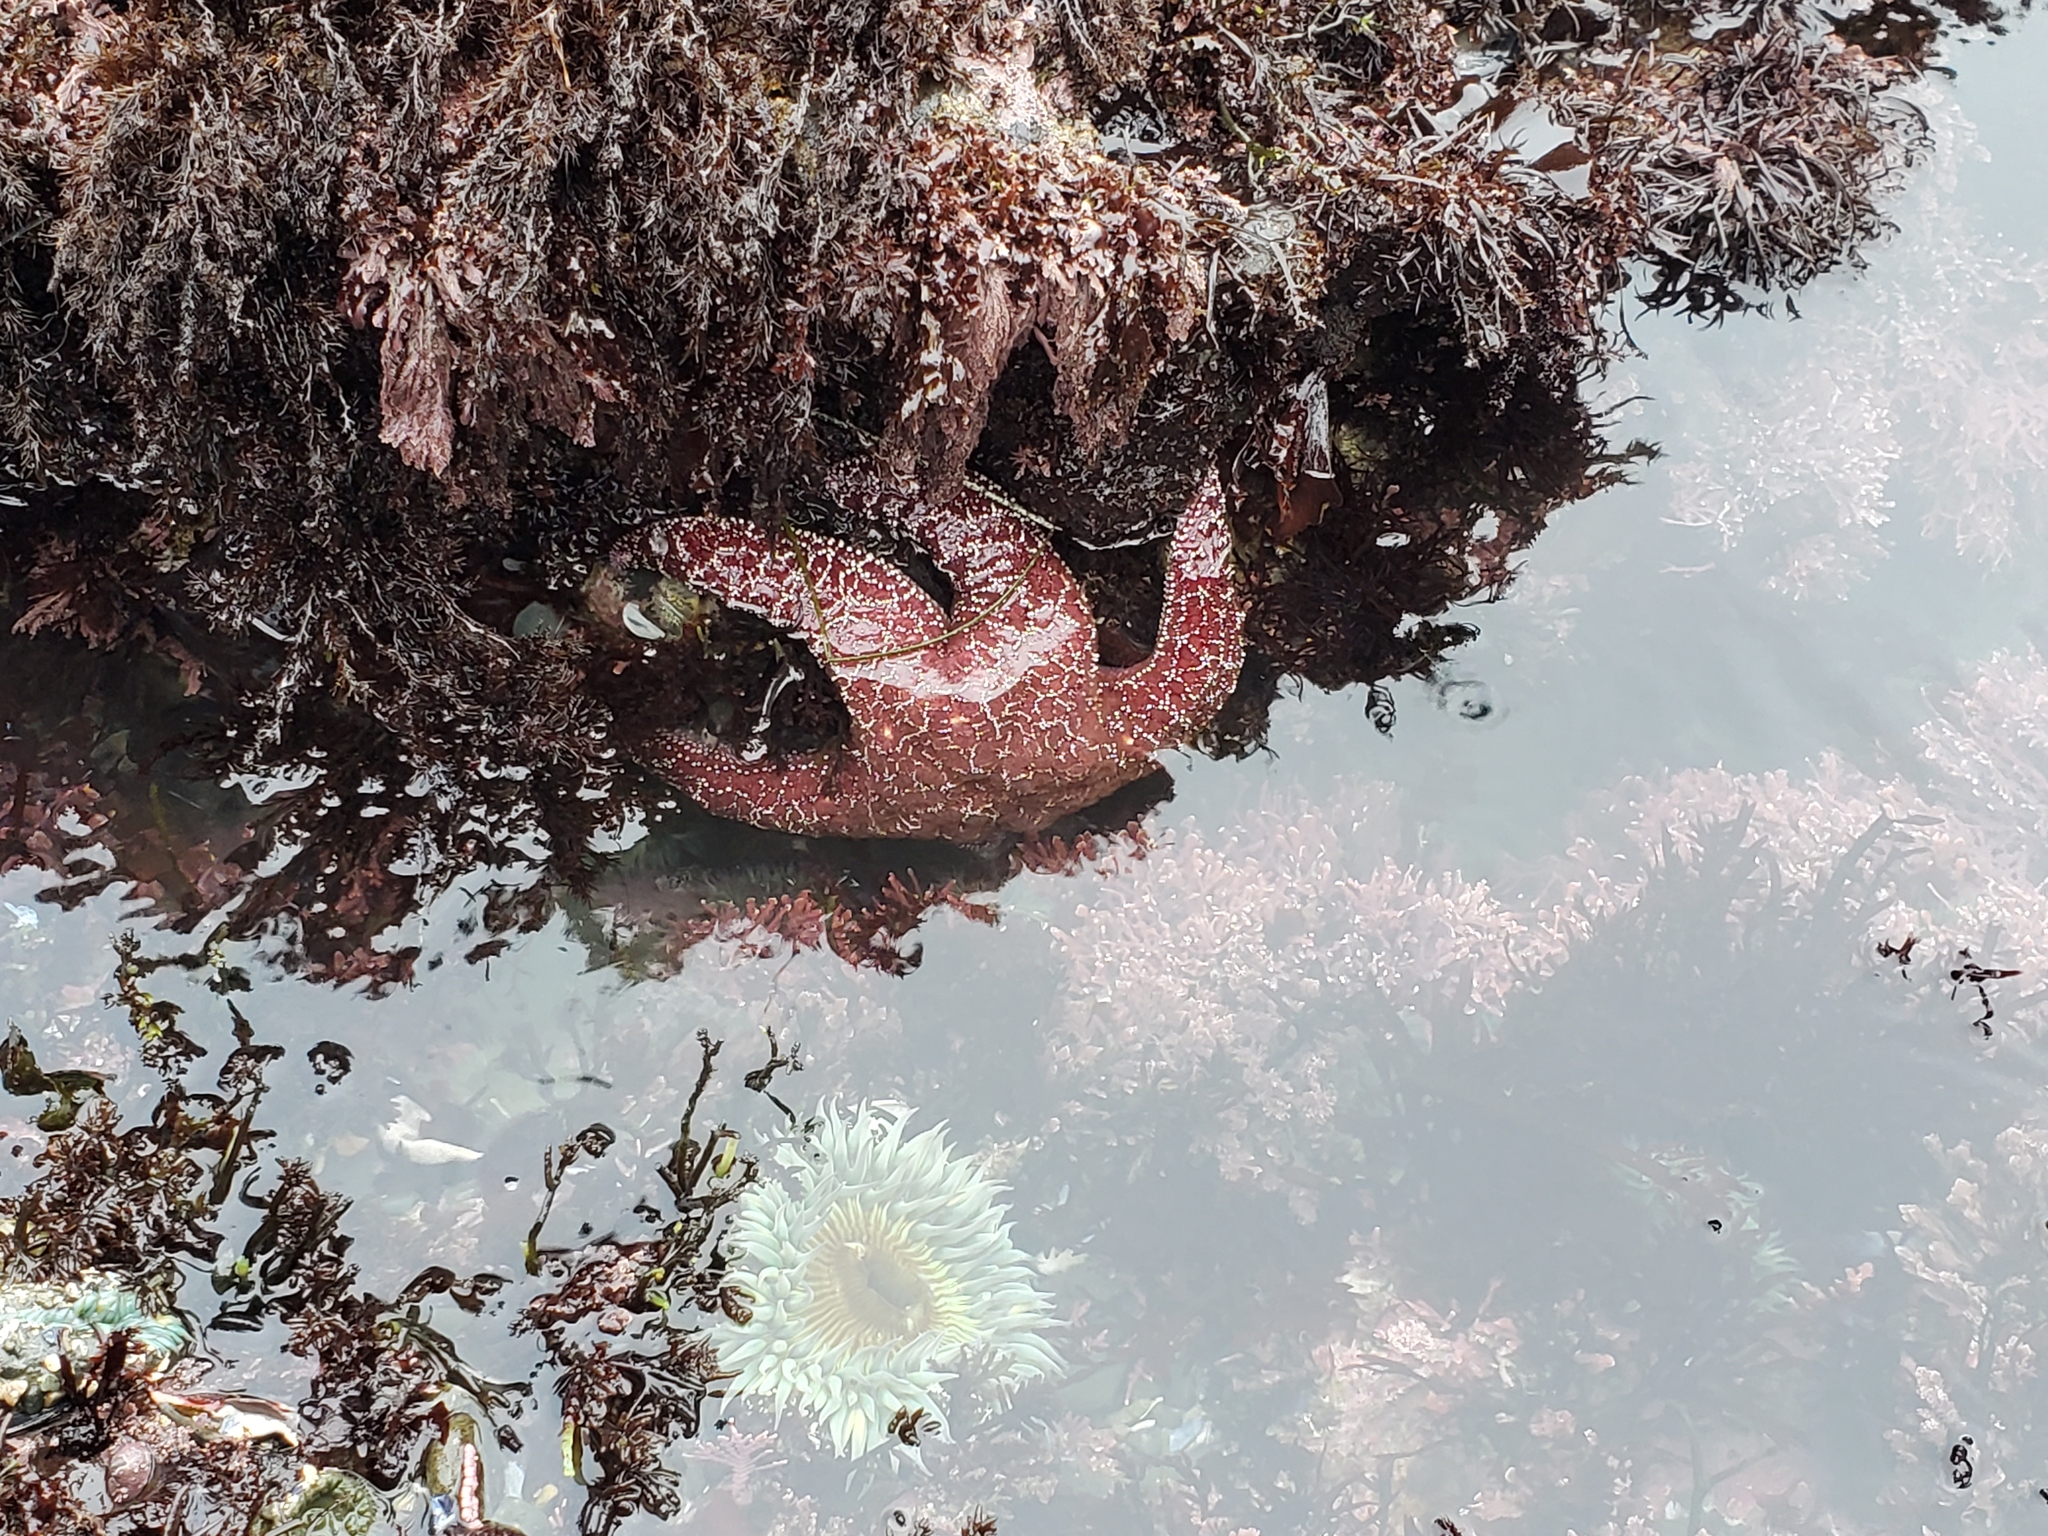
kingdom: Animalia
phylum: Echinodermata
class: Asteroidea
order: Forcipulatida
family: Asteriidae
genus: Pisaster
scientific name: Pisaster ochraceus
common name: Ochre stars
